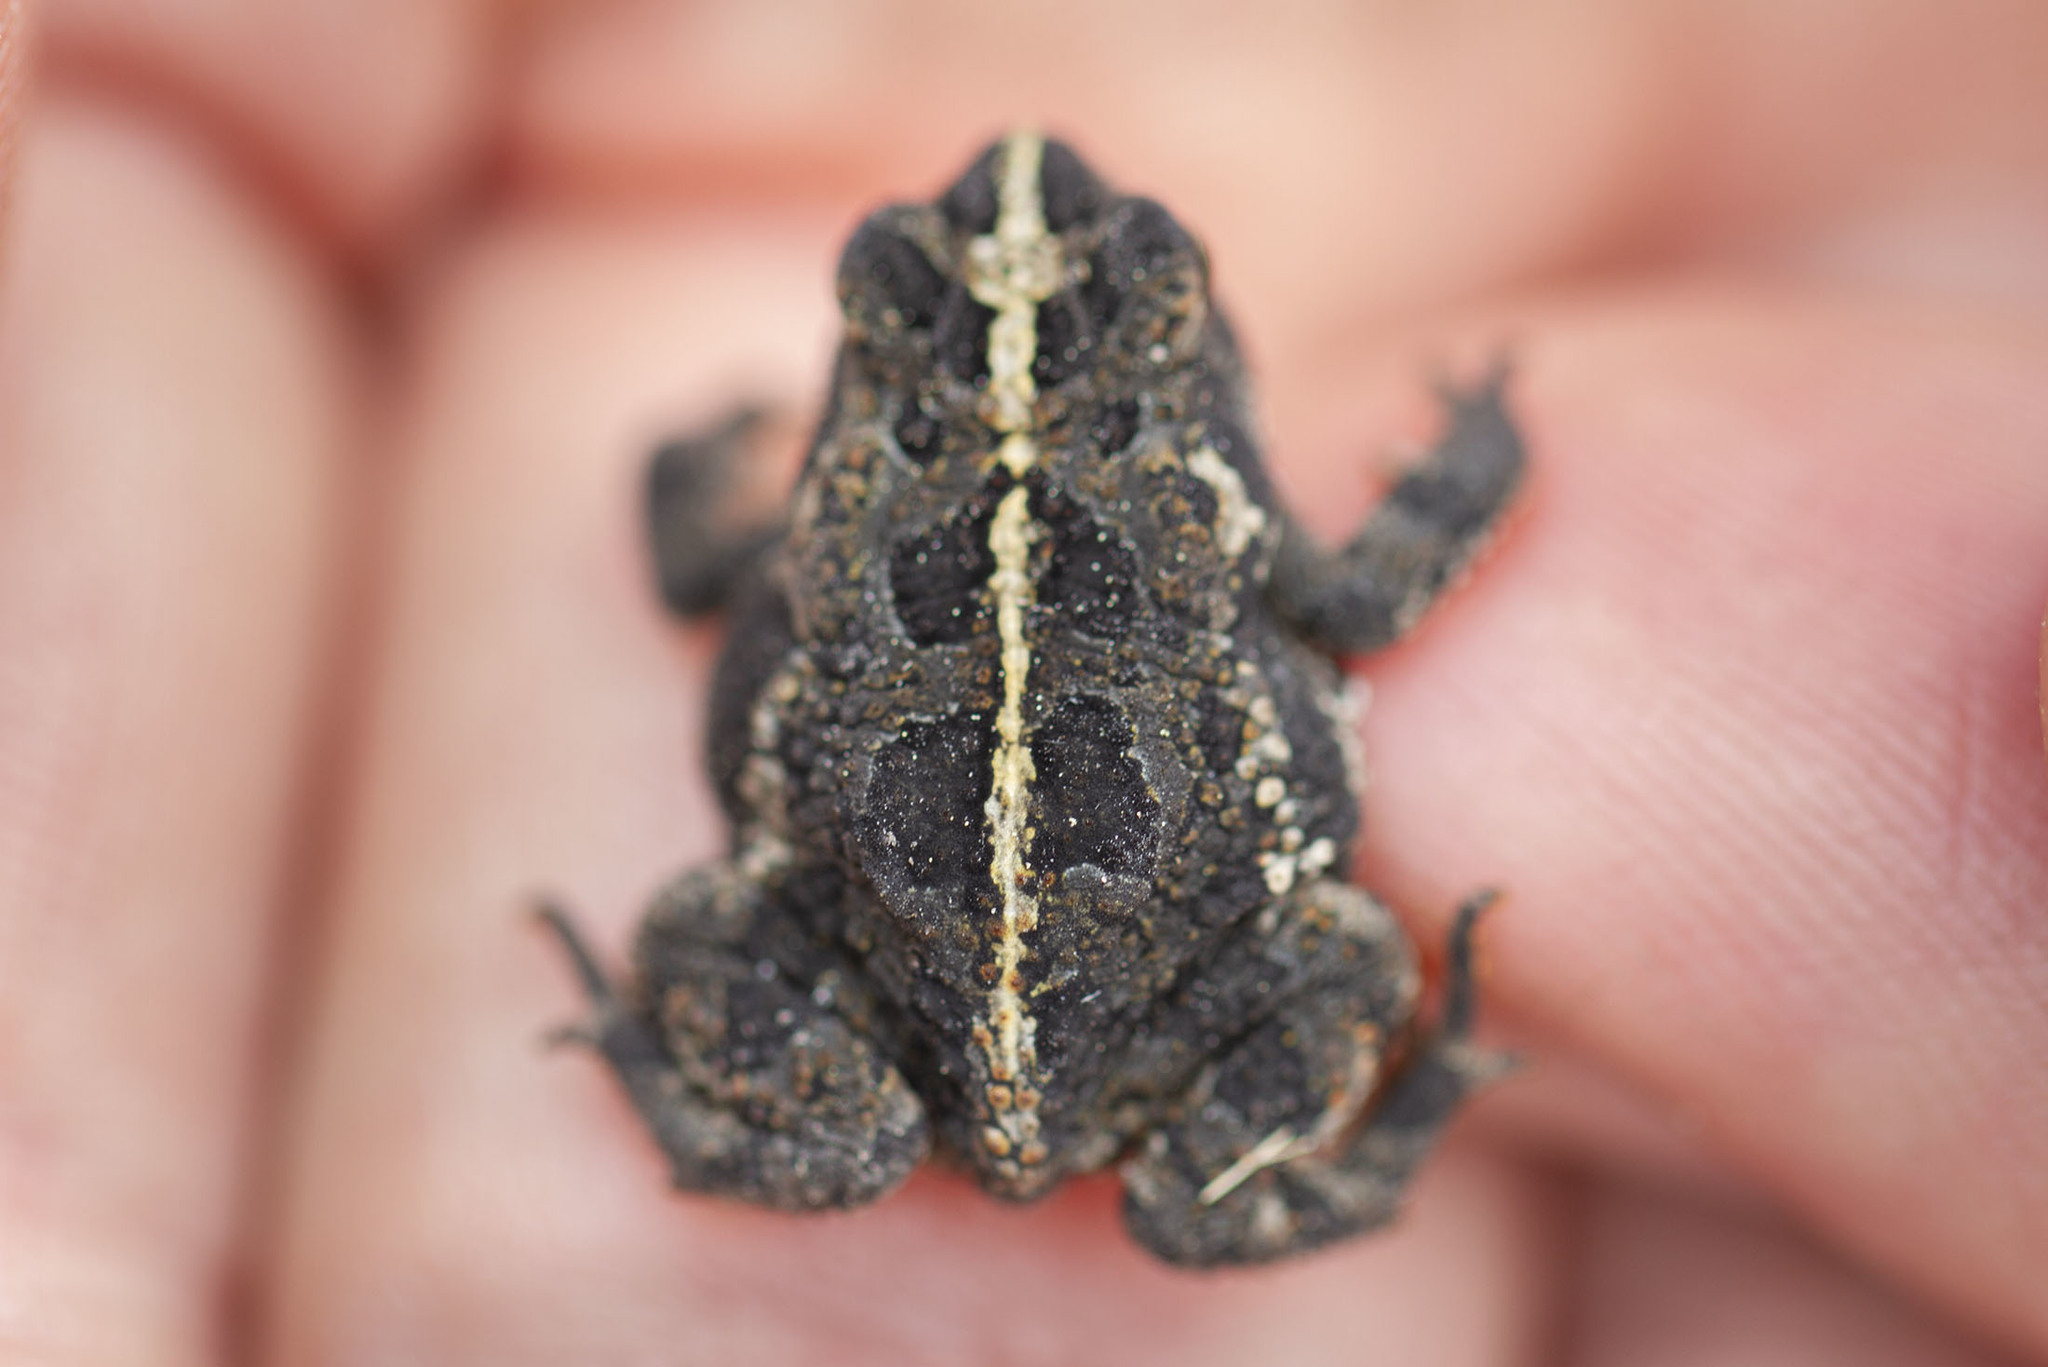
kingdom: Animalia
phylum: Chordata
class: Amphibia
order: Anura
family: Bufonidae
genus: Anaxyrus
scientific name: Anaxyrus quercicus
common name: Oak toad
